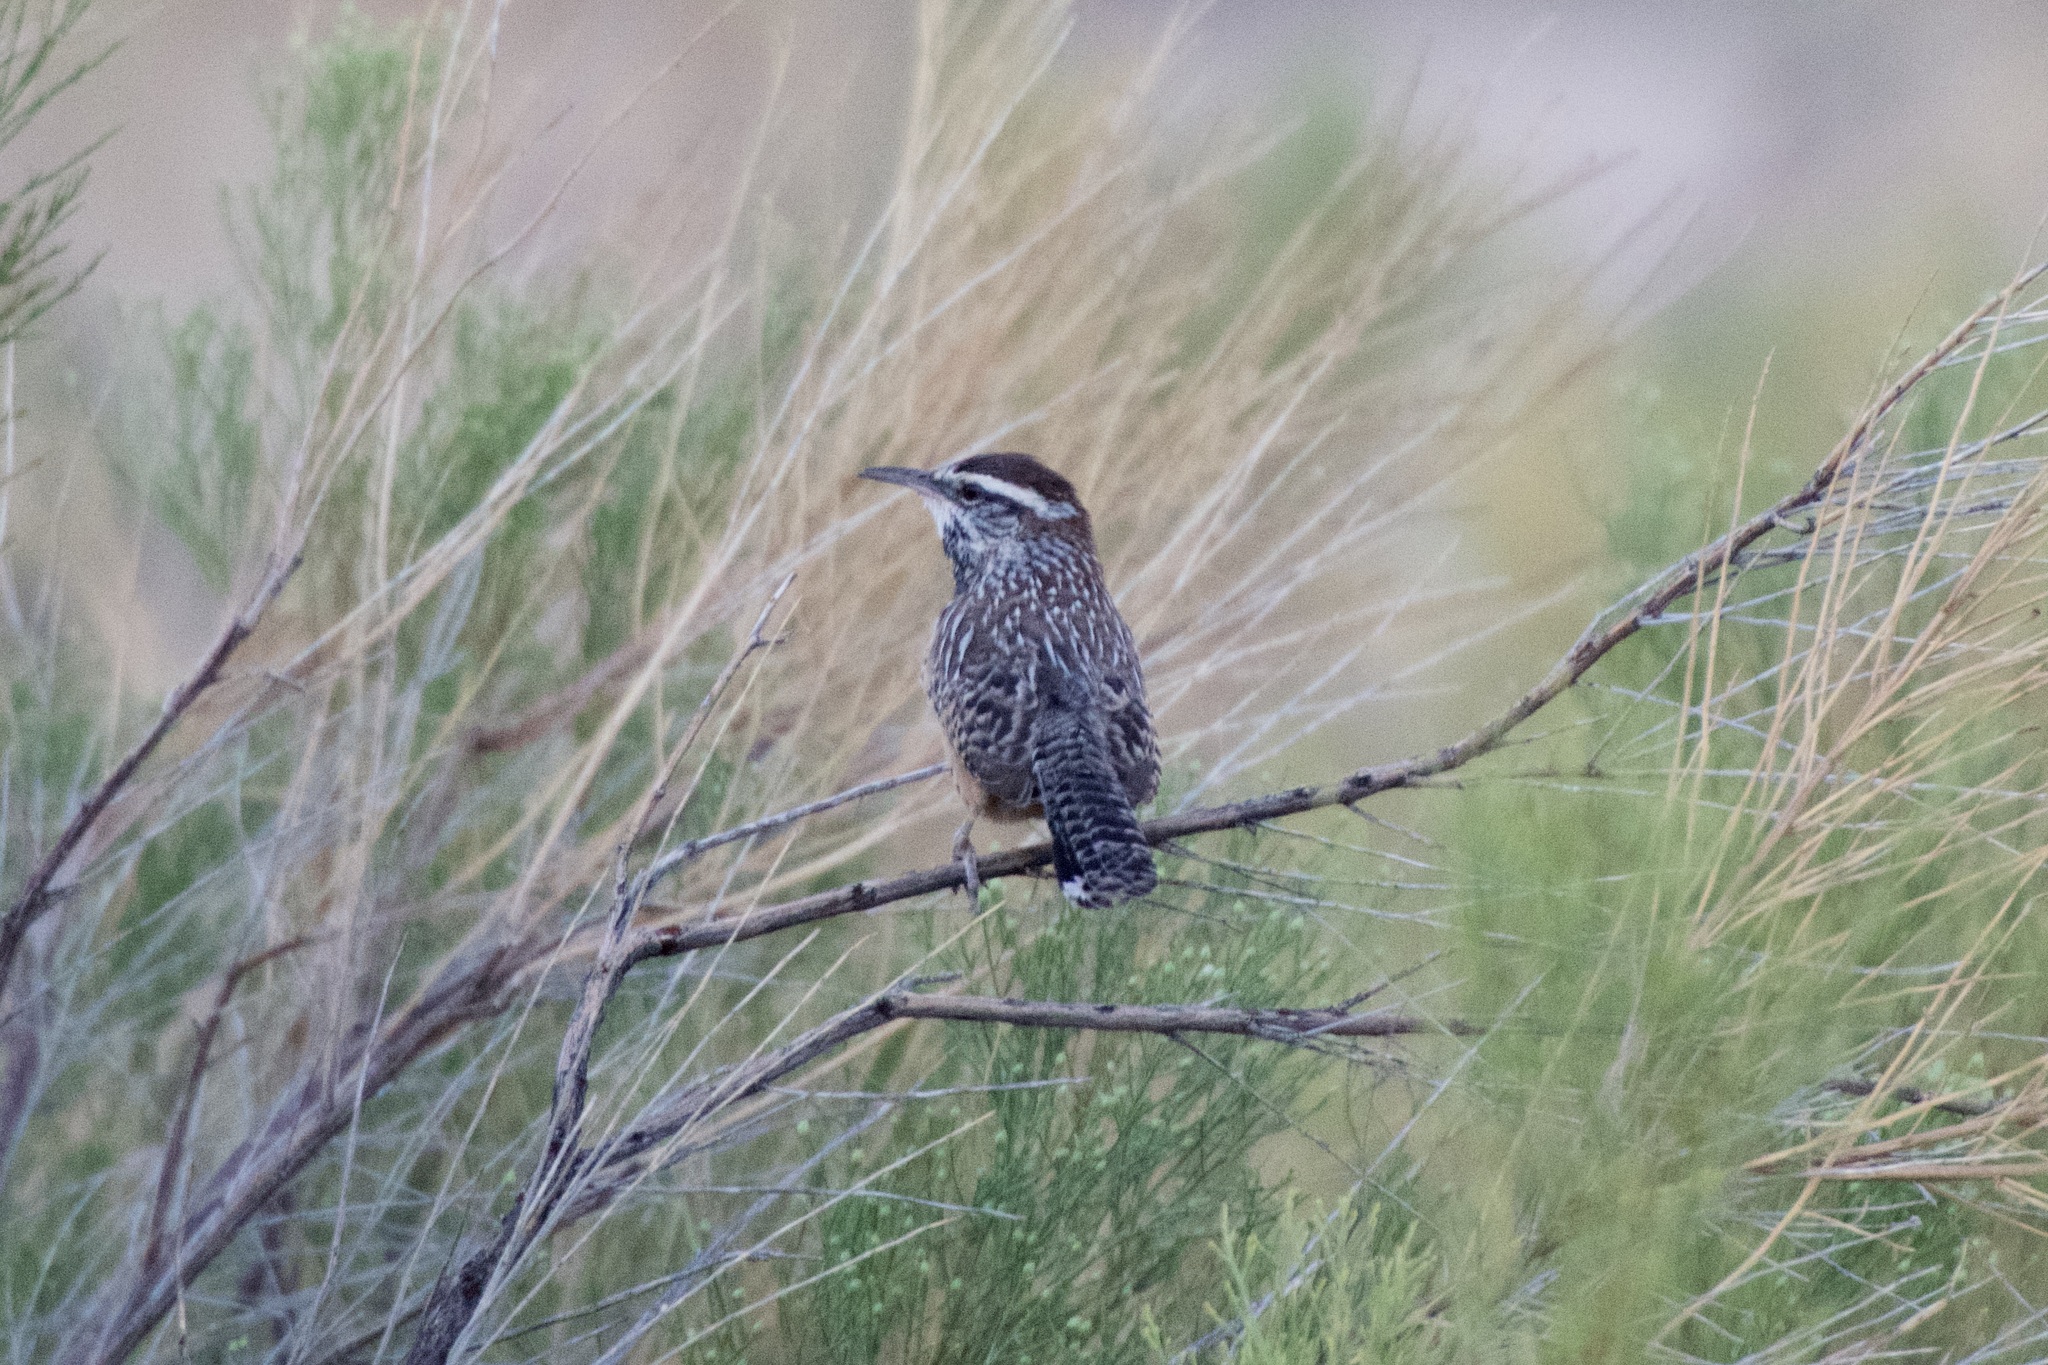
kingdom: Animalia
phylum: Chordata
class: Aves
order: Passeriformes
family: Troglodytidae
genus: Campylorhynchus
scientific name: Campylorhynchus brunneicapillus
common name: Cactus wren
